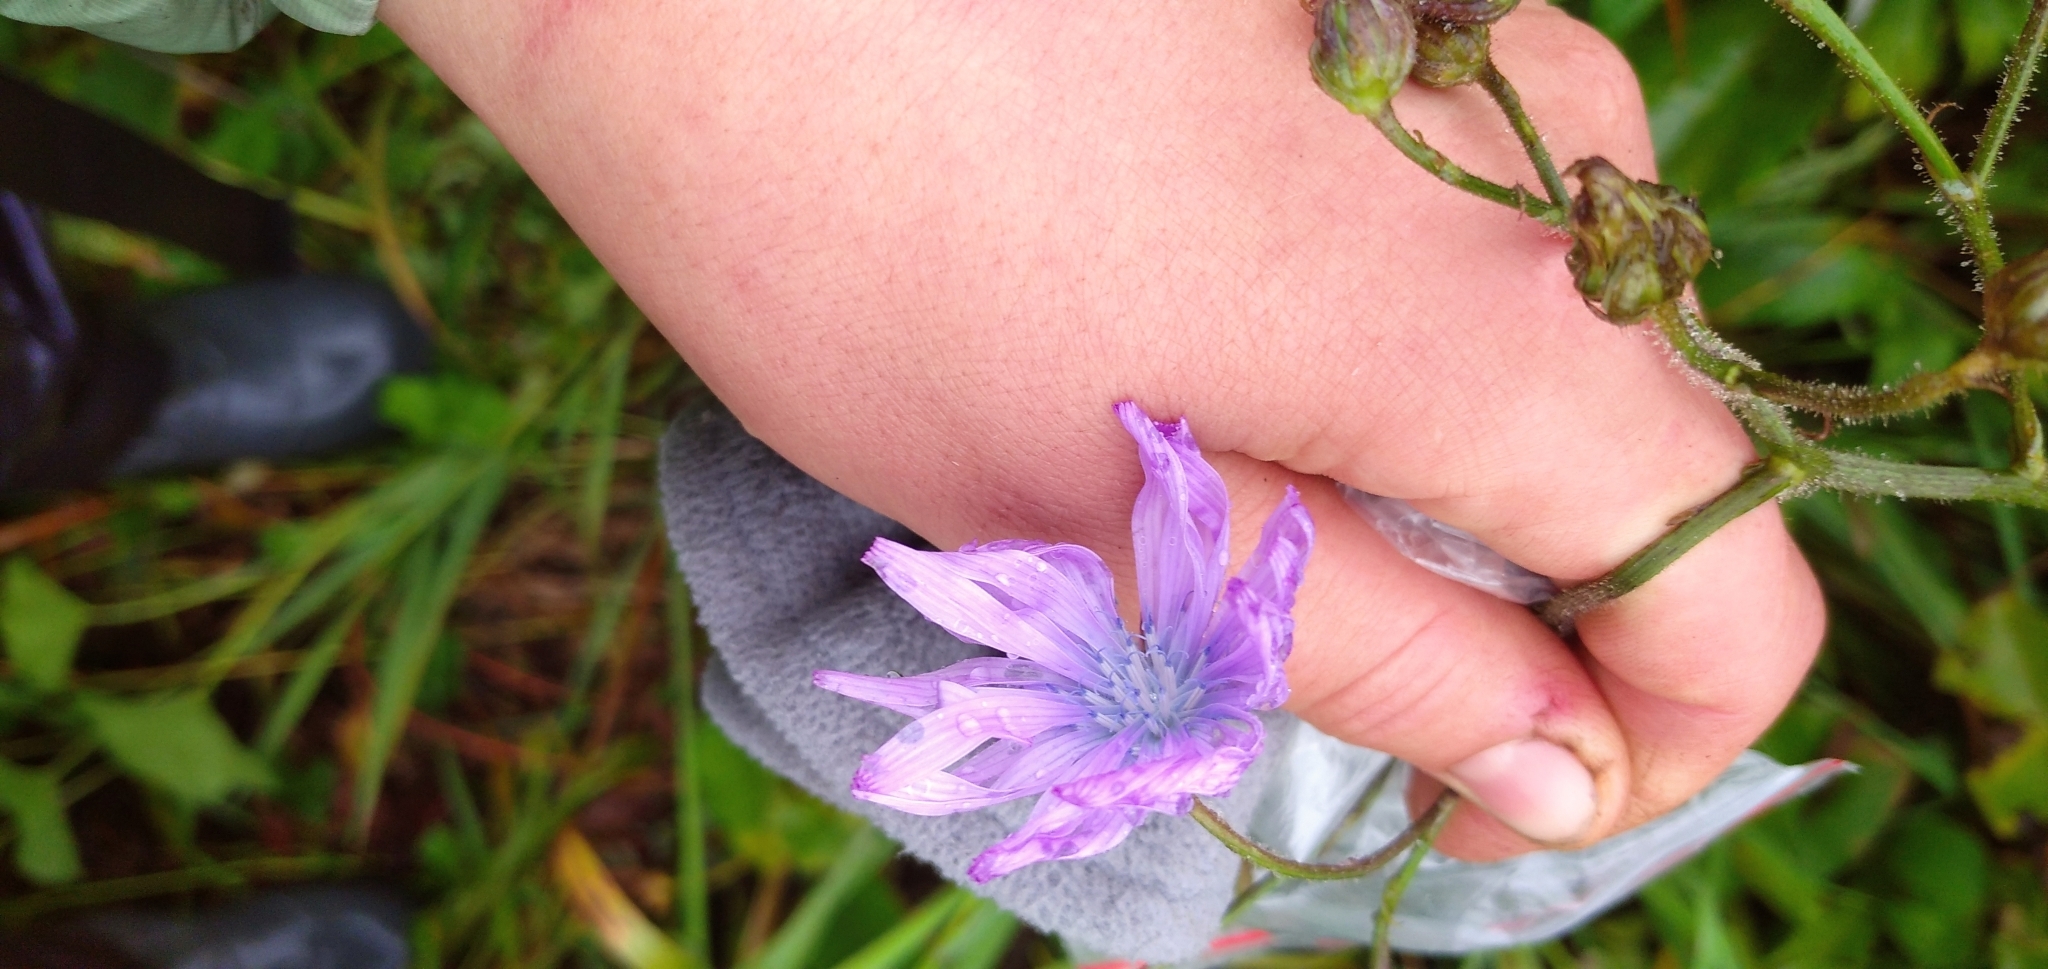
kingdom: Plantae
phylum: Tracheophyta
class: Magnoliopsida
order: Asterales
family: Asteraceae
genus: Lactuca
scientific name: Lactuca macrophylla
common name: Common blue-sow-thistle
